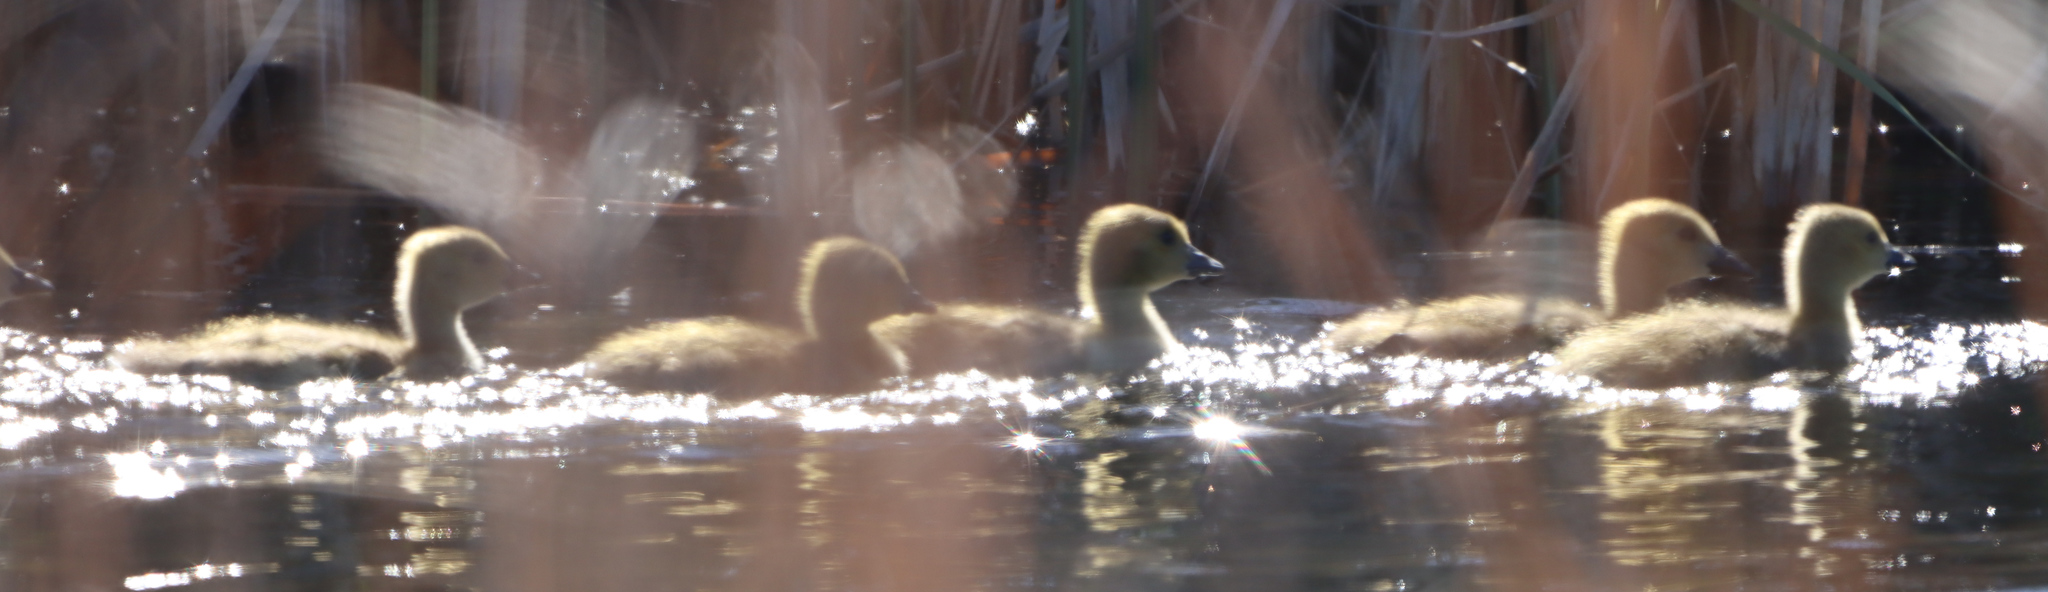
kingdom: Animalia
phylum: Chordata
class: Aves
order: Anseriformes
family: Anatidae
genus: Branta
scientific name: Branta canadensis
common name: Canada goose
